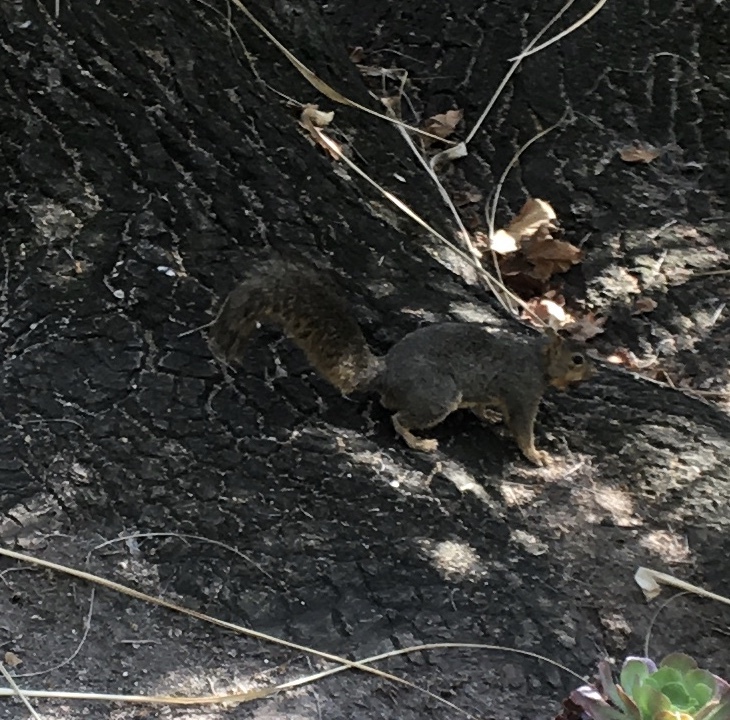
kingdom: Animalia
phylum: Chordata
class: Mammalia
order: Rodentia
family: Sciuridae
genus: Sciurus
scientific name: Sciurus niger
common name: Fox squirrel
